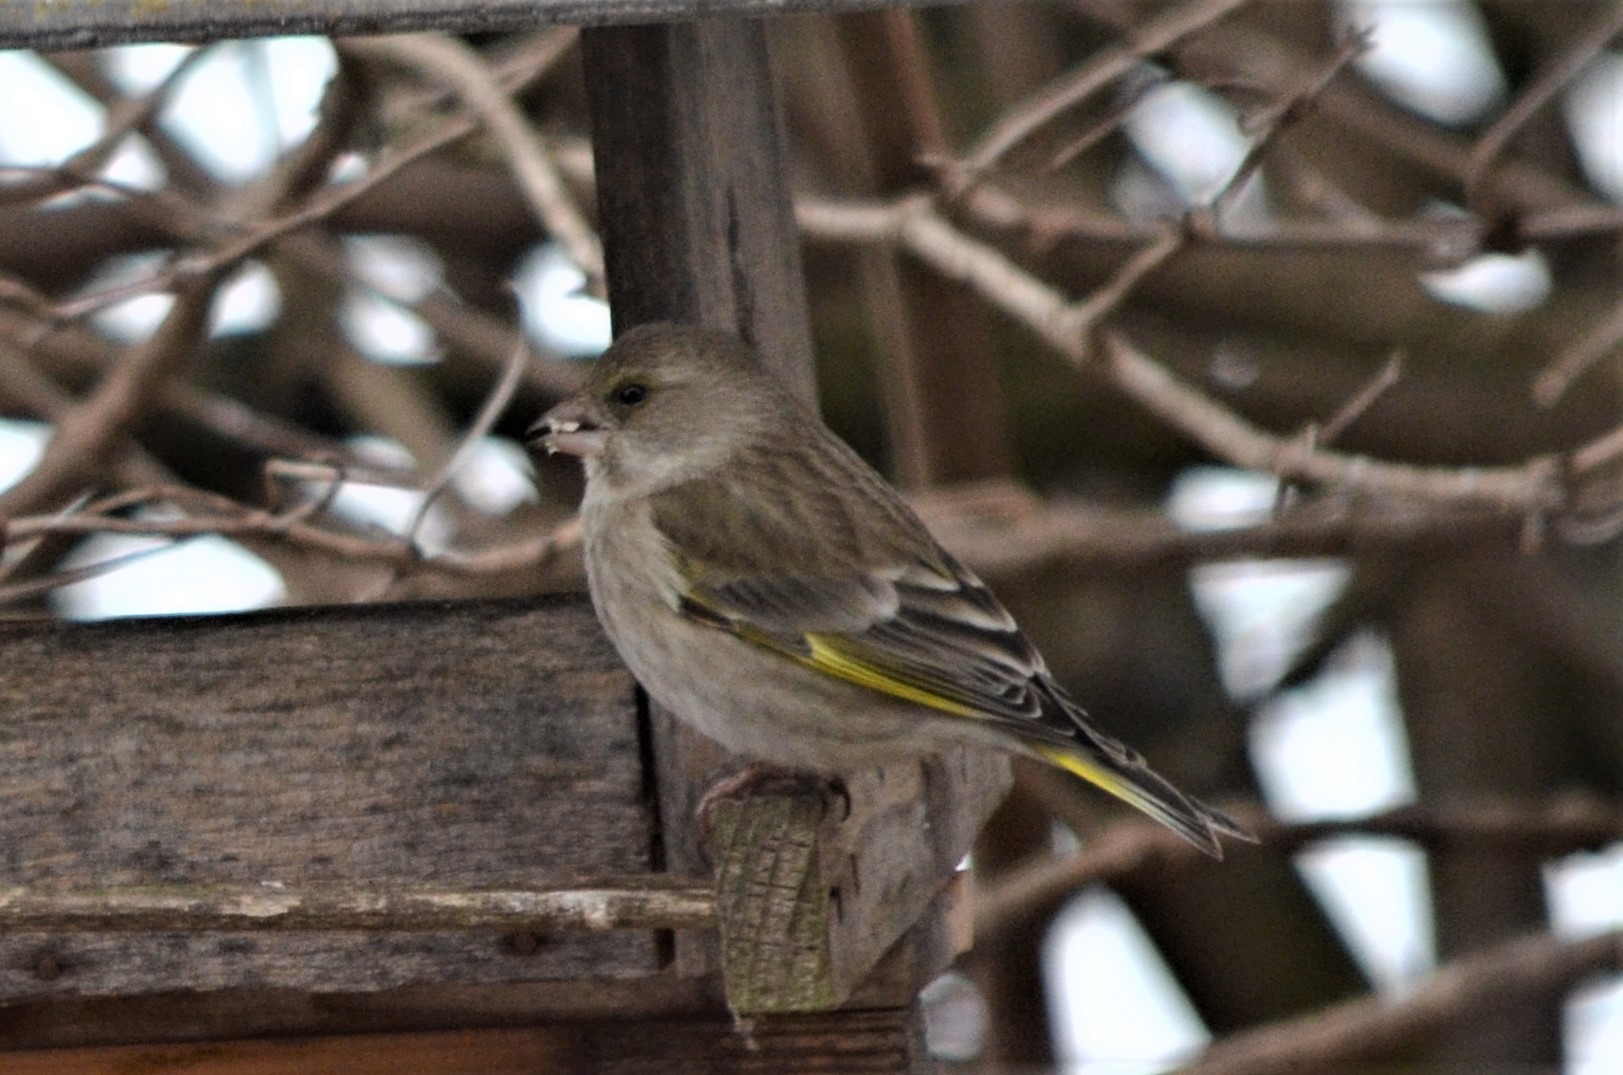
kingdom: Plantae
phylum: Tracheophyta
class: Liliopsida
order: Poales
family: Poaceae
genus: Chloris
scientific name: Chloris chloris
